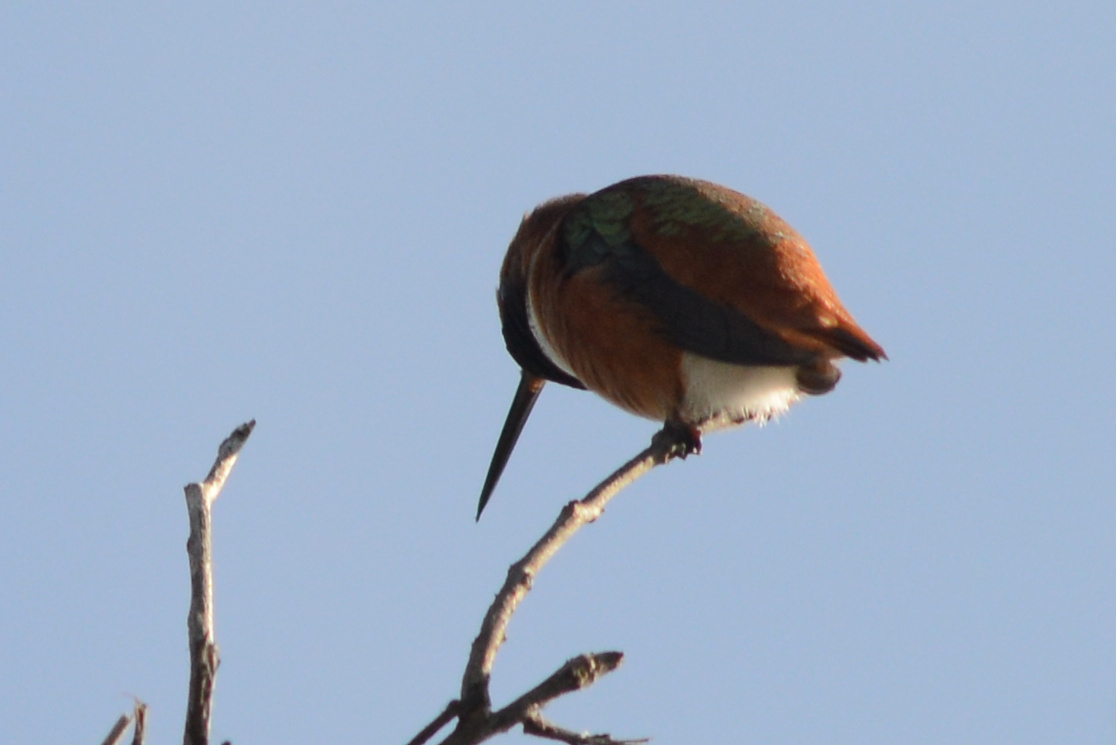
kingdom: Animalia
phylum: Chordata
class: Aves
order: Apodiformes
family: Trochilidae
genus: Selasphorus
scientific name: Selasphorus sasin
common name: Allen's hummingbird
